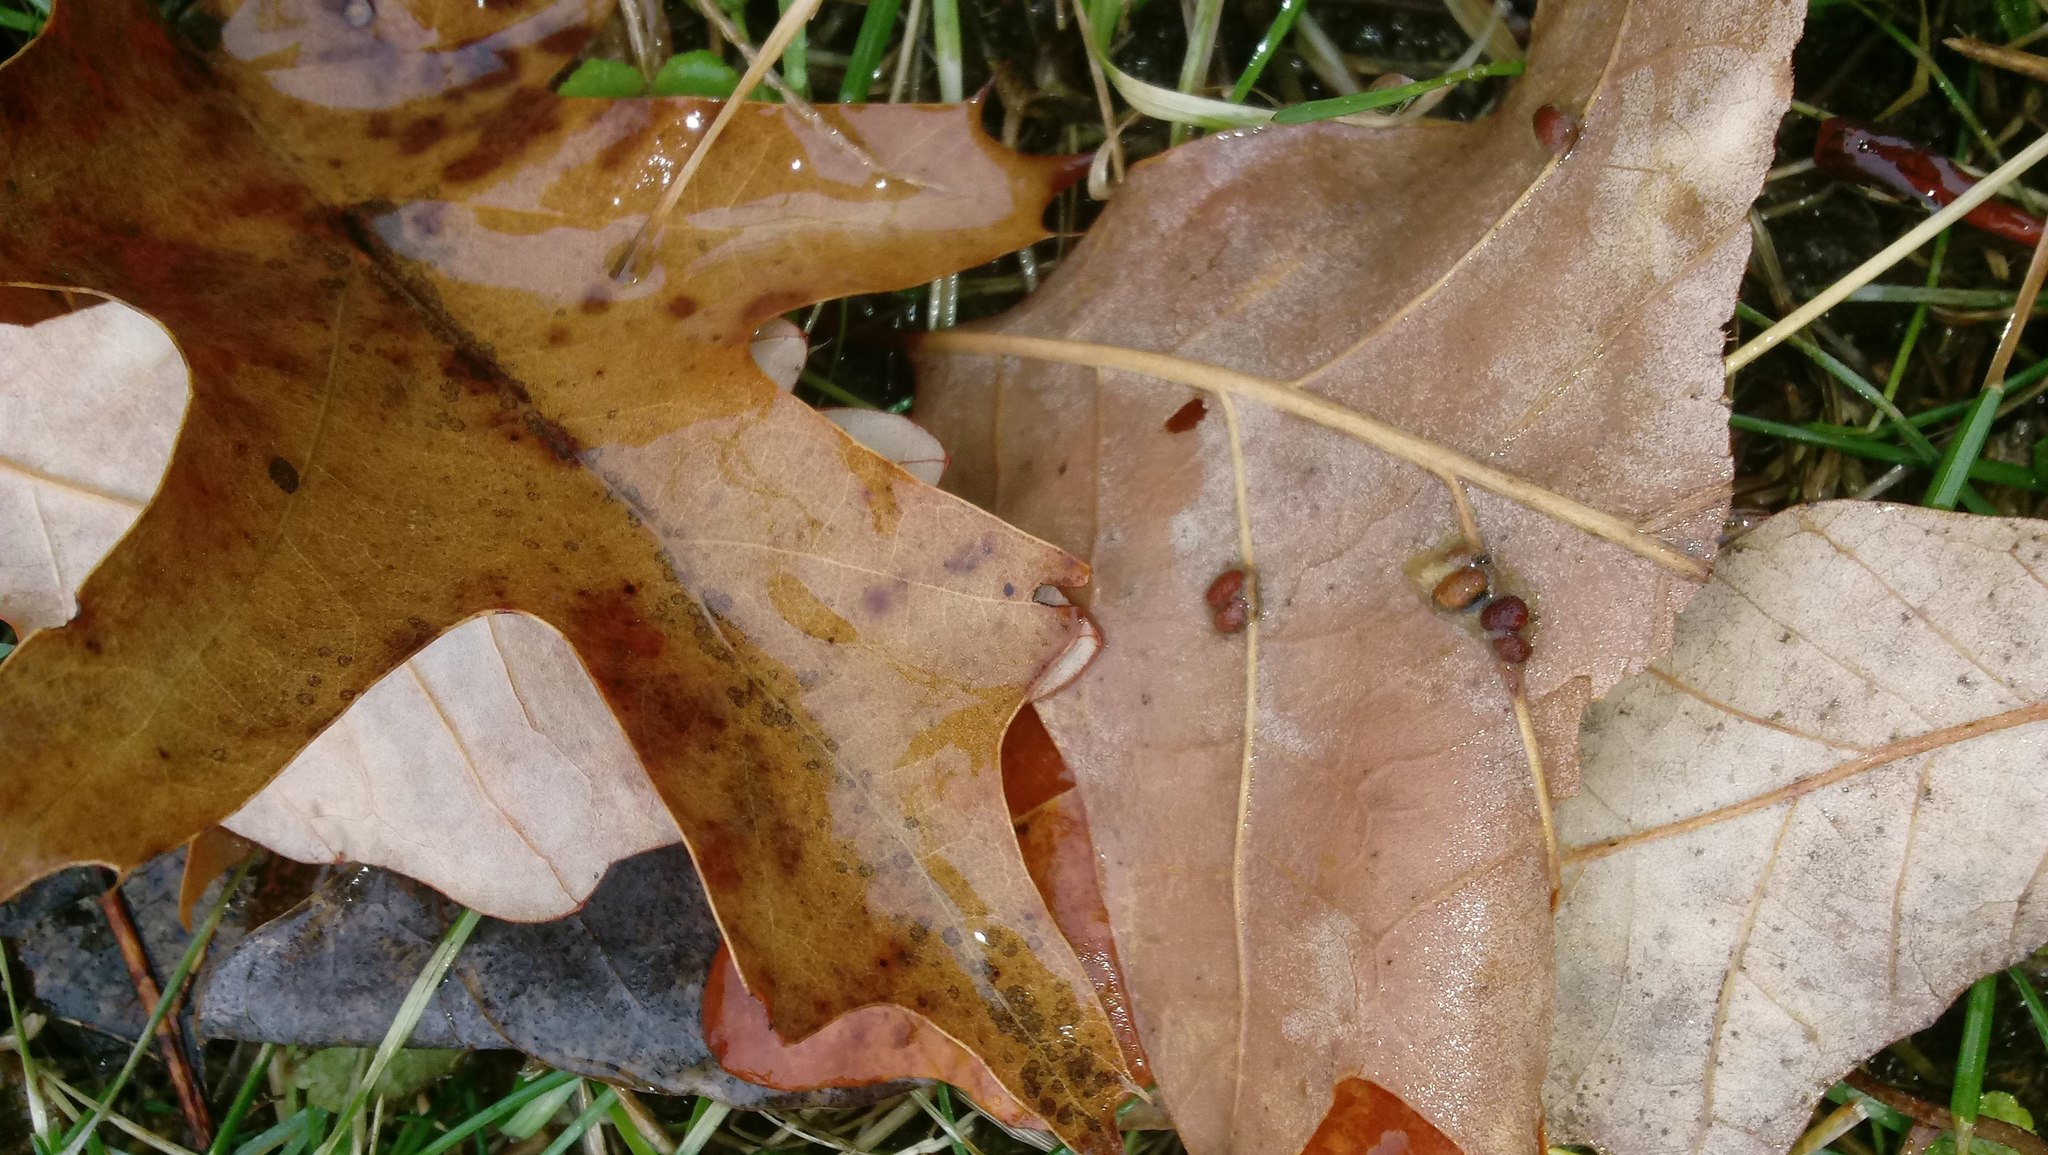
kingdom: Animalia
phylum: Arthropoda
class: Insecta
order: Hymenoptera
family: Cynipidae
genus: Andricus
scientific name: Andricus Druon ignotum
